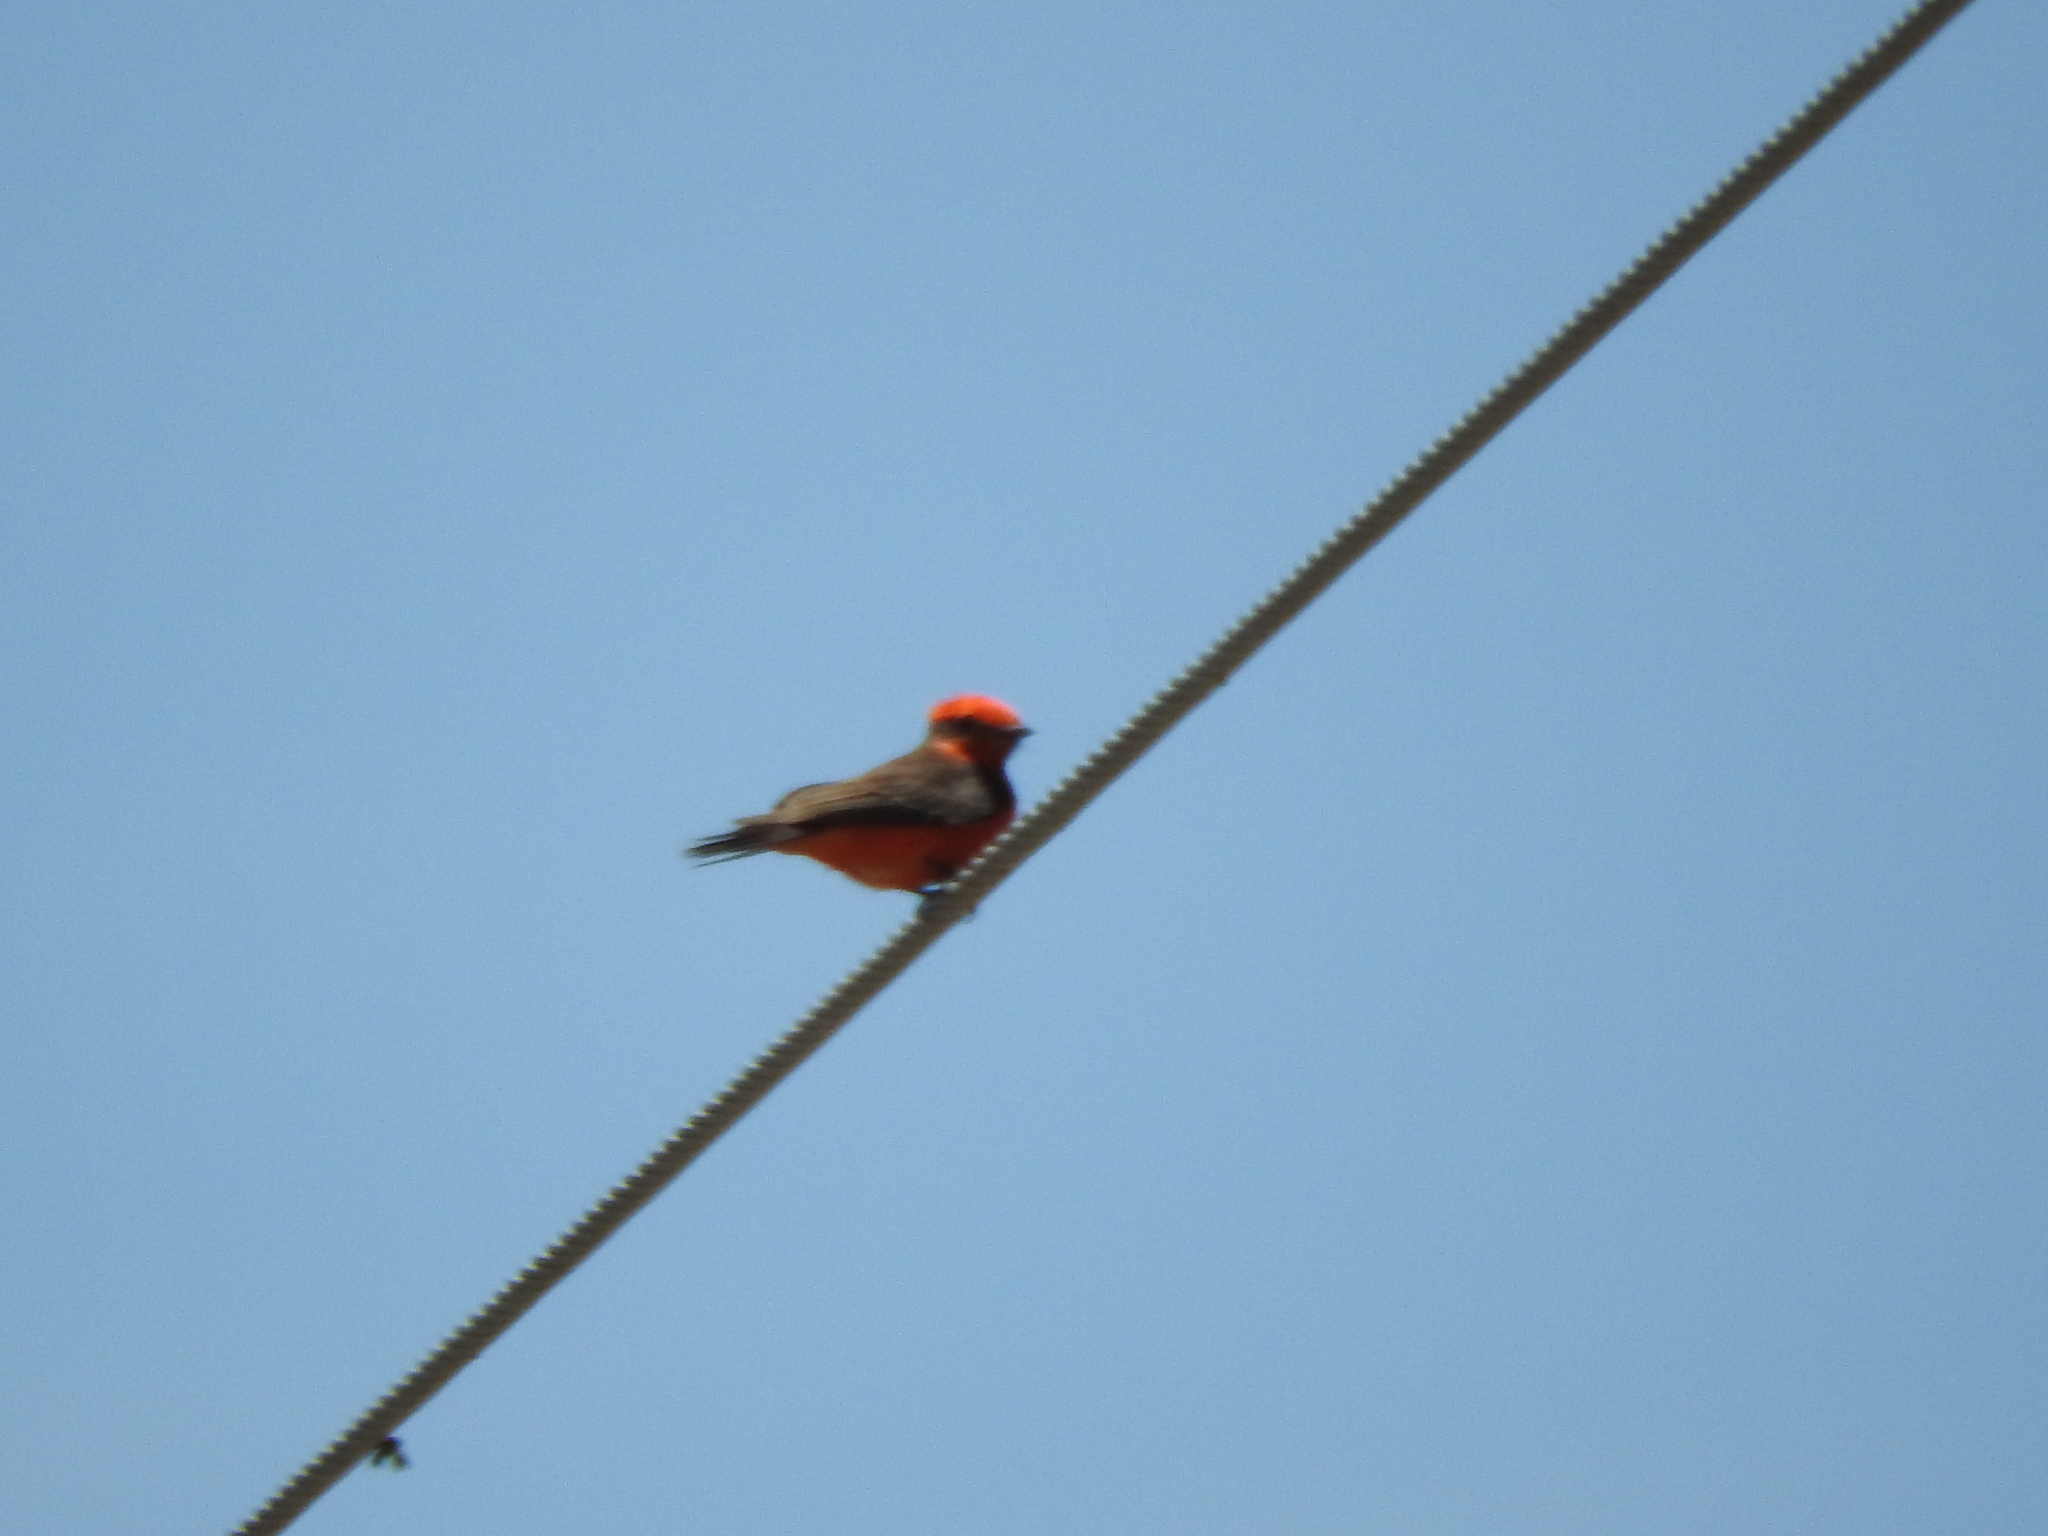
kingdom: Animalia
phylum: Chordata
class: Aves
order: Passeriformes
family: Tyrannidae
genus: Pyrocephalus
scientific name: Pyrocephalus rubinus
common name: Vermilion flycatcher
